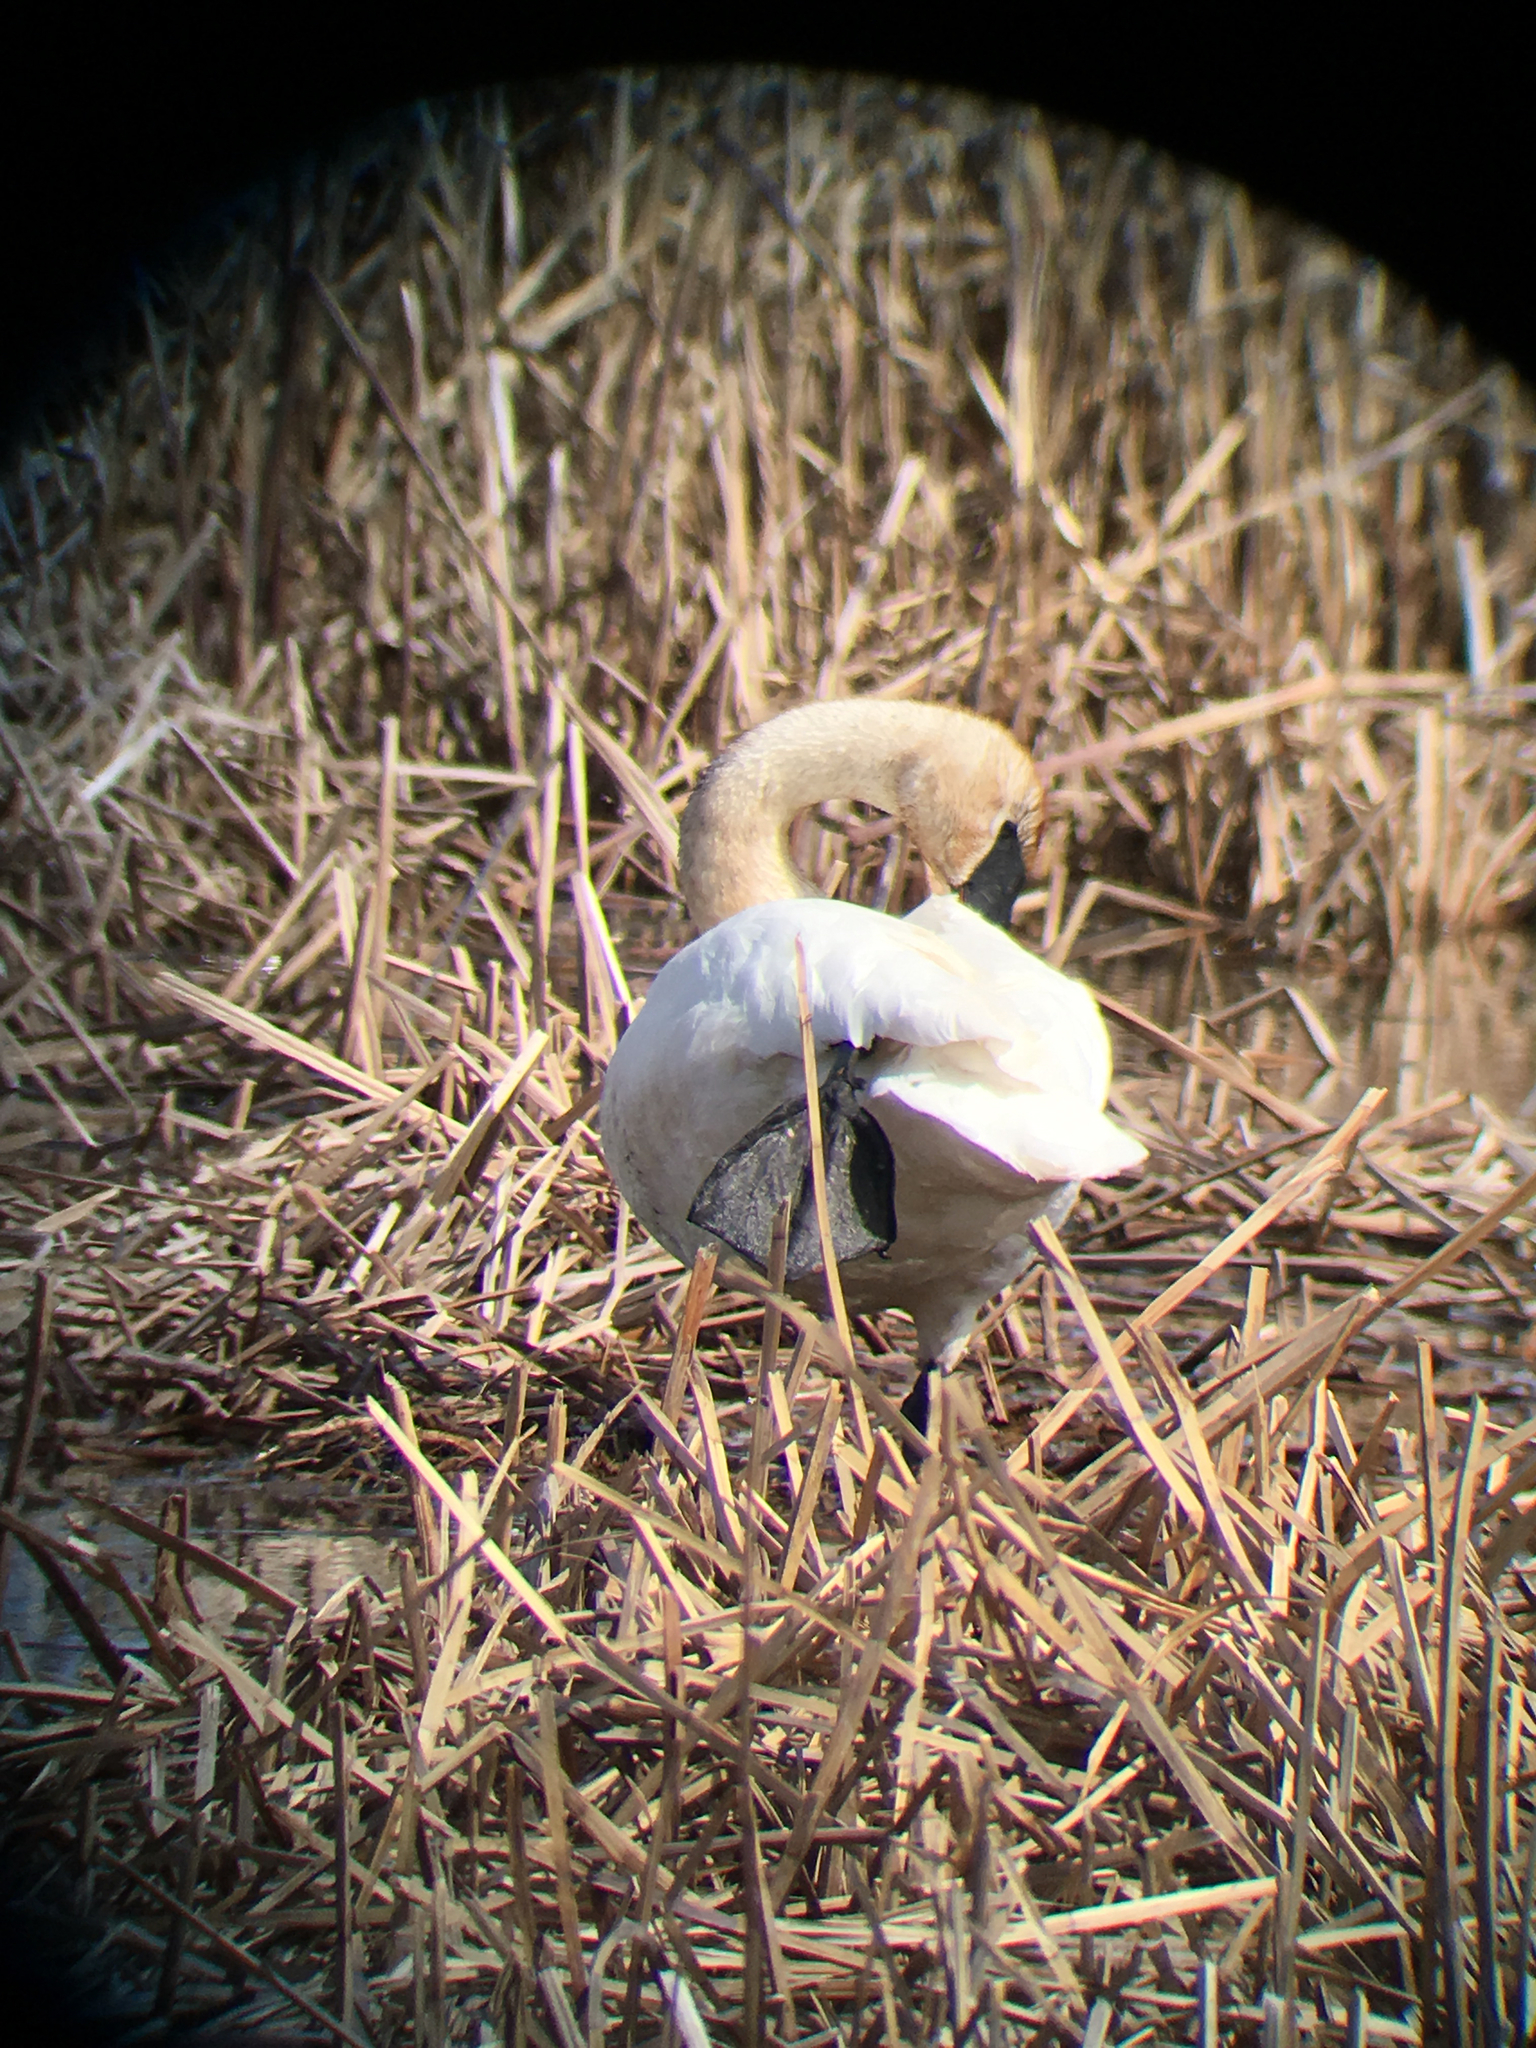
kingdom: Animalia
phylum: Chordata
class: Aves
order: Anseriformes
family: Anatidae
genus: Cygnus
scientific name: Cygnus buccinator
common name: Trumpeter swan
